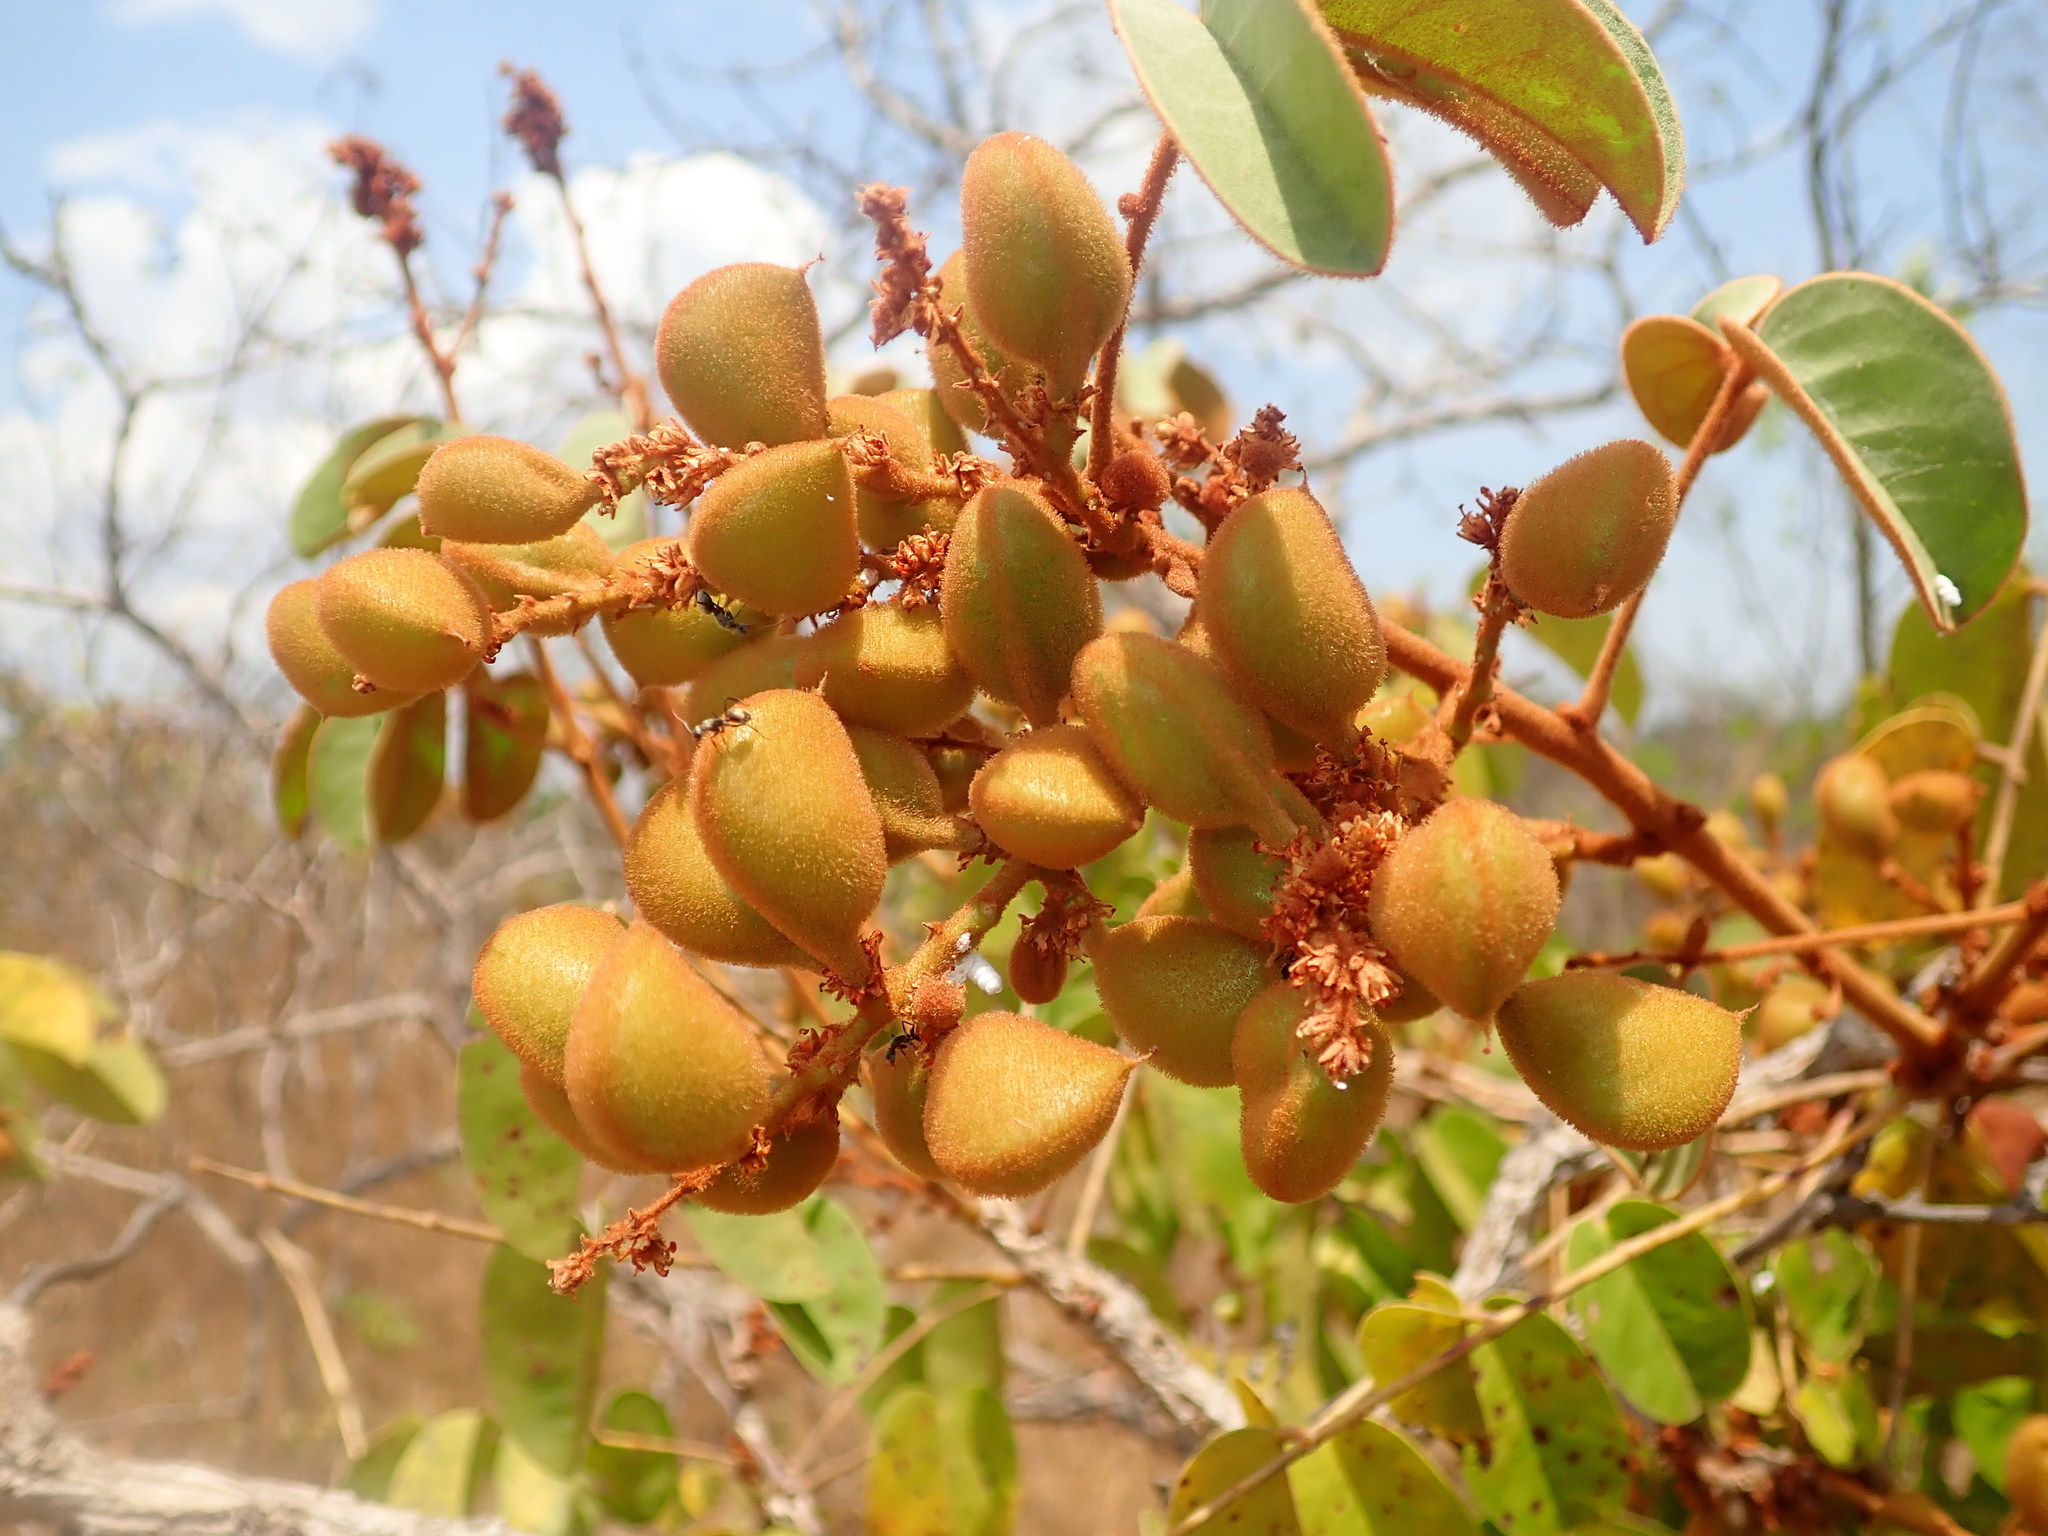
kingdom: Plantae
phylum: Tracheophyta
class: Magnoliopsida
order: Oxalidales
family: Connaraceae
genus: Connarus
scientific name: Connarus suberosus
